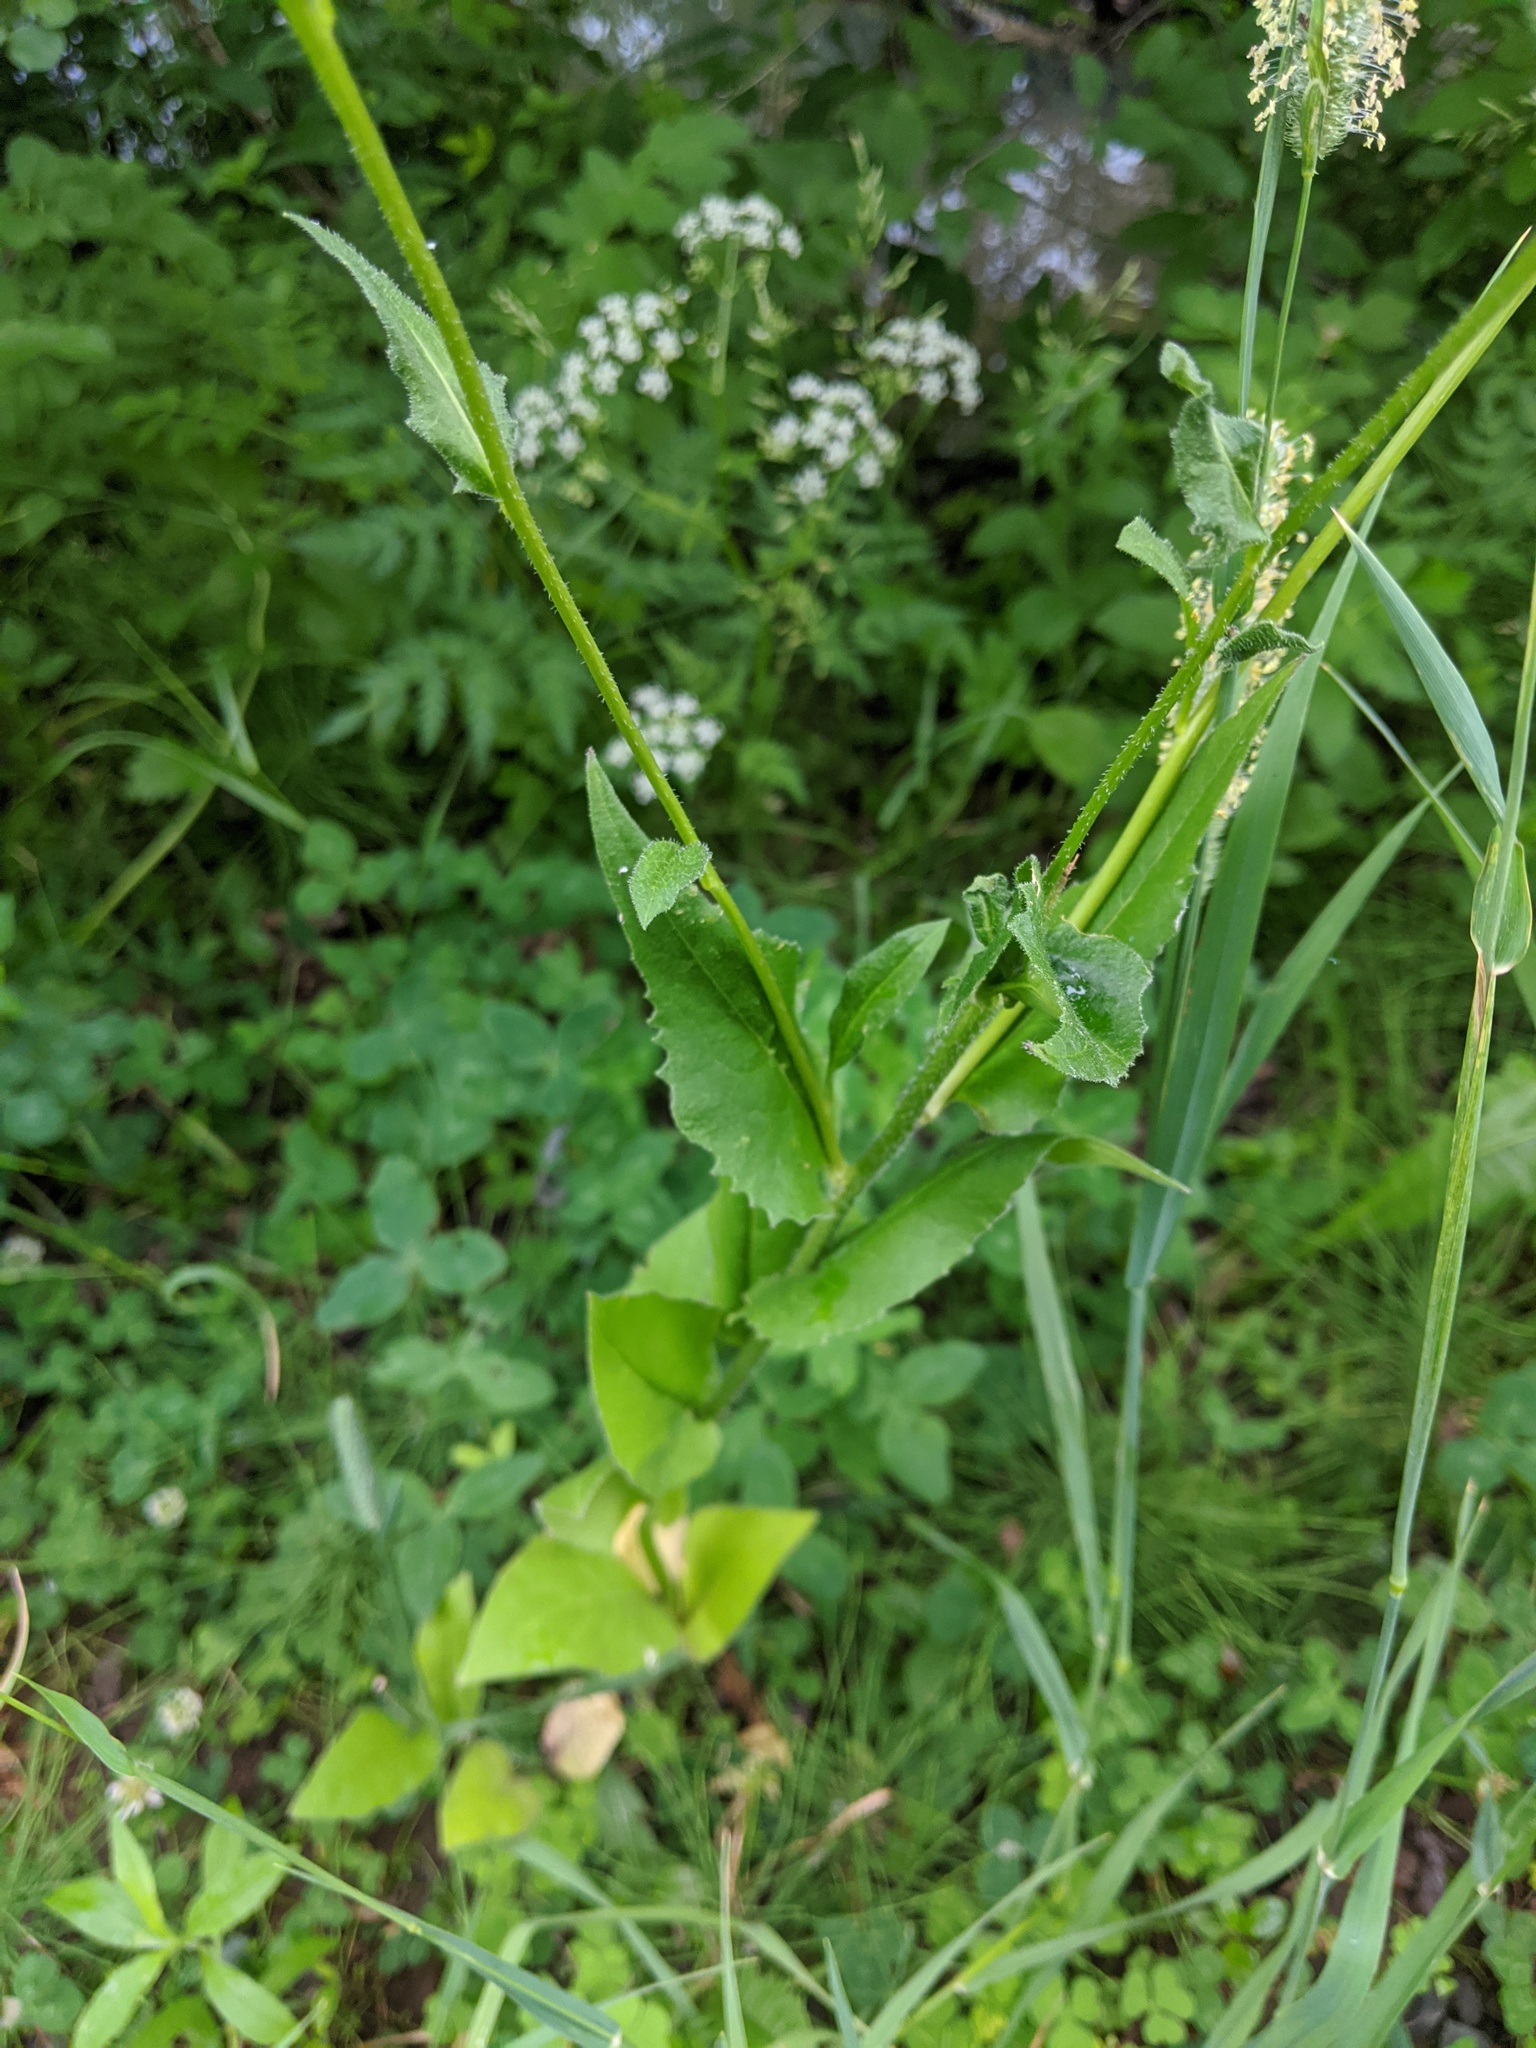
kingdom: Plantae
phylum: Tracheophyta
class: Magnoliopsida
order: Brassicales
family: Brassicaceae
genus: Hesperis
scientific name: Hesperis matronalis
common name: Dame's-violet
